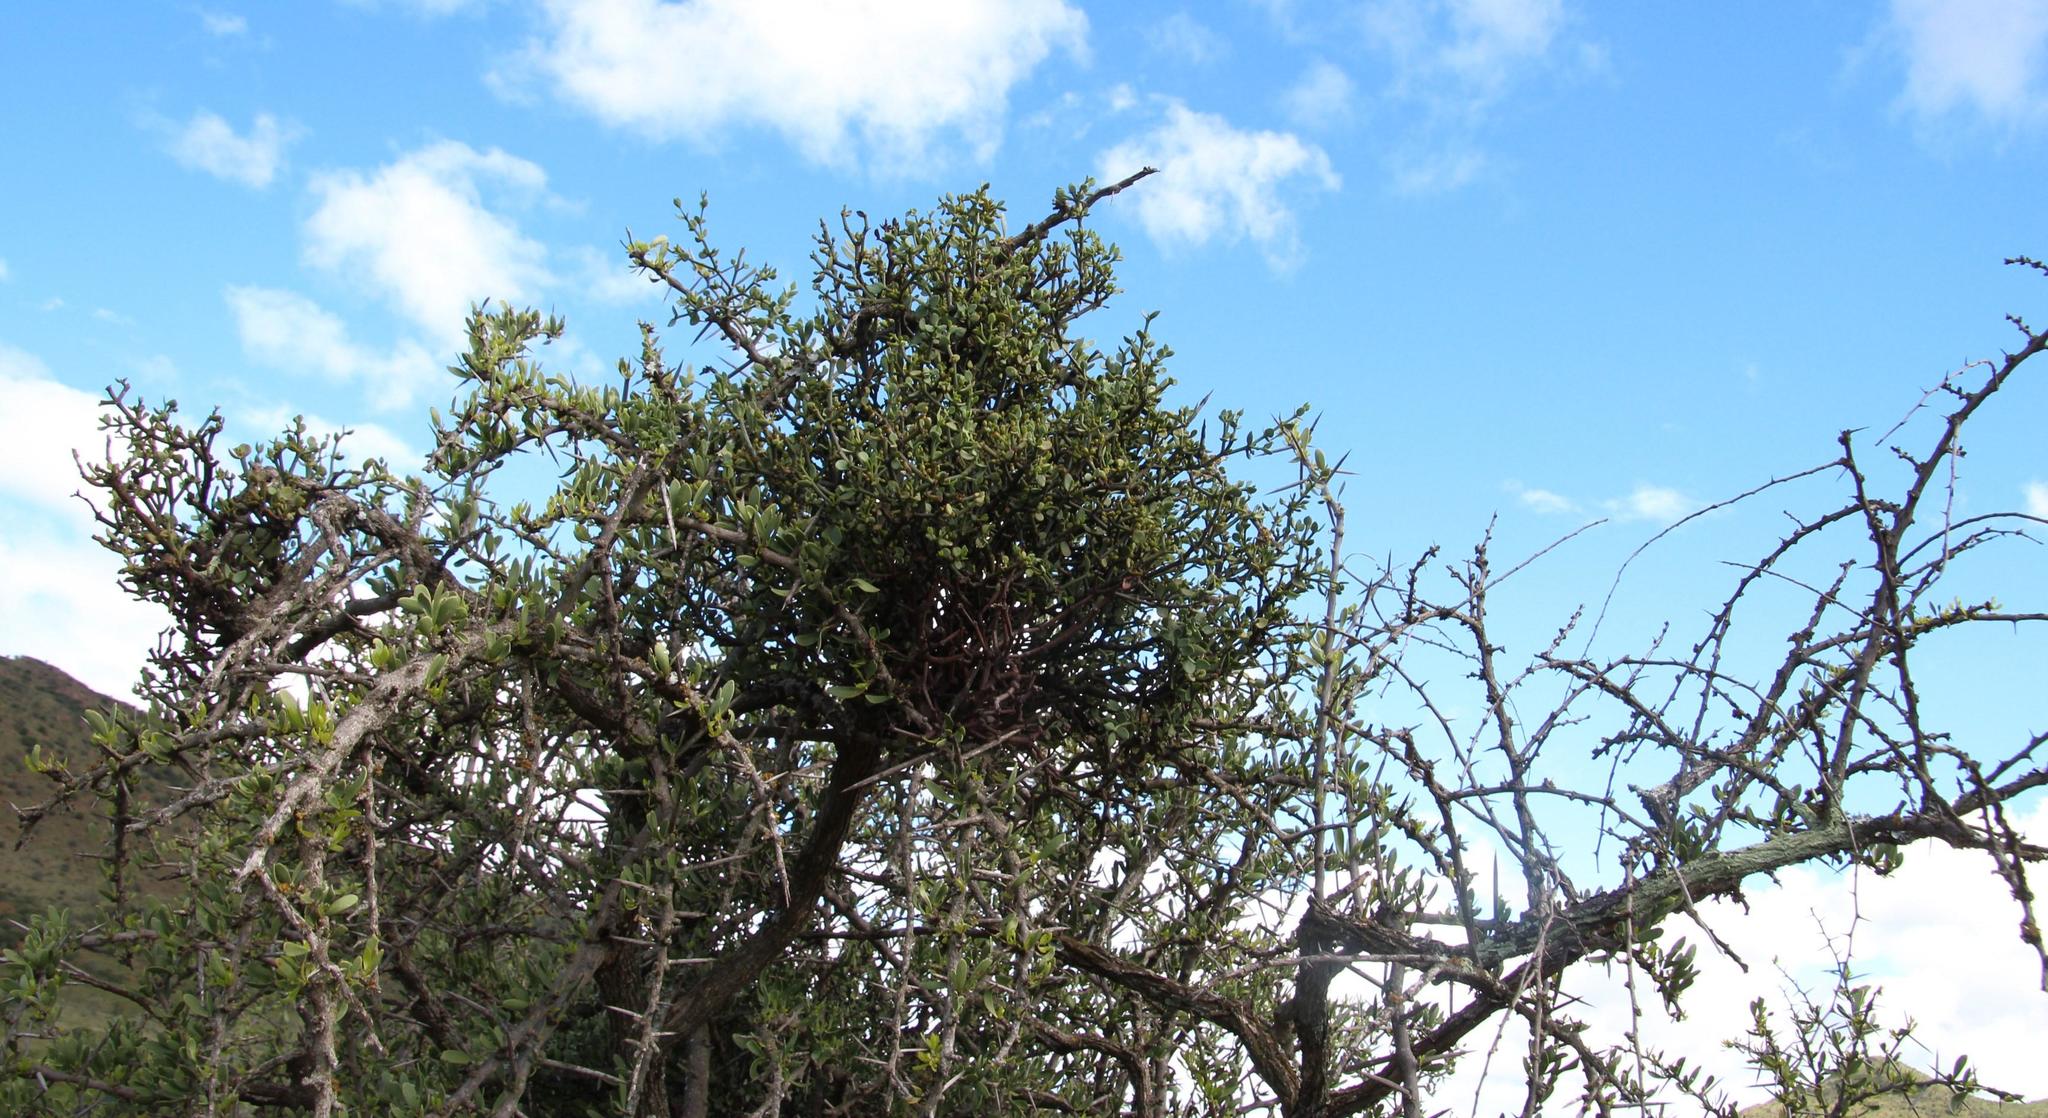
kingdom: Plantae
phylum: Tracheophyta
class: Magnoliopsida
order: Santalales
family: Viscaceae
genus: Viscum
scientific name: Viscum rotundifolium
